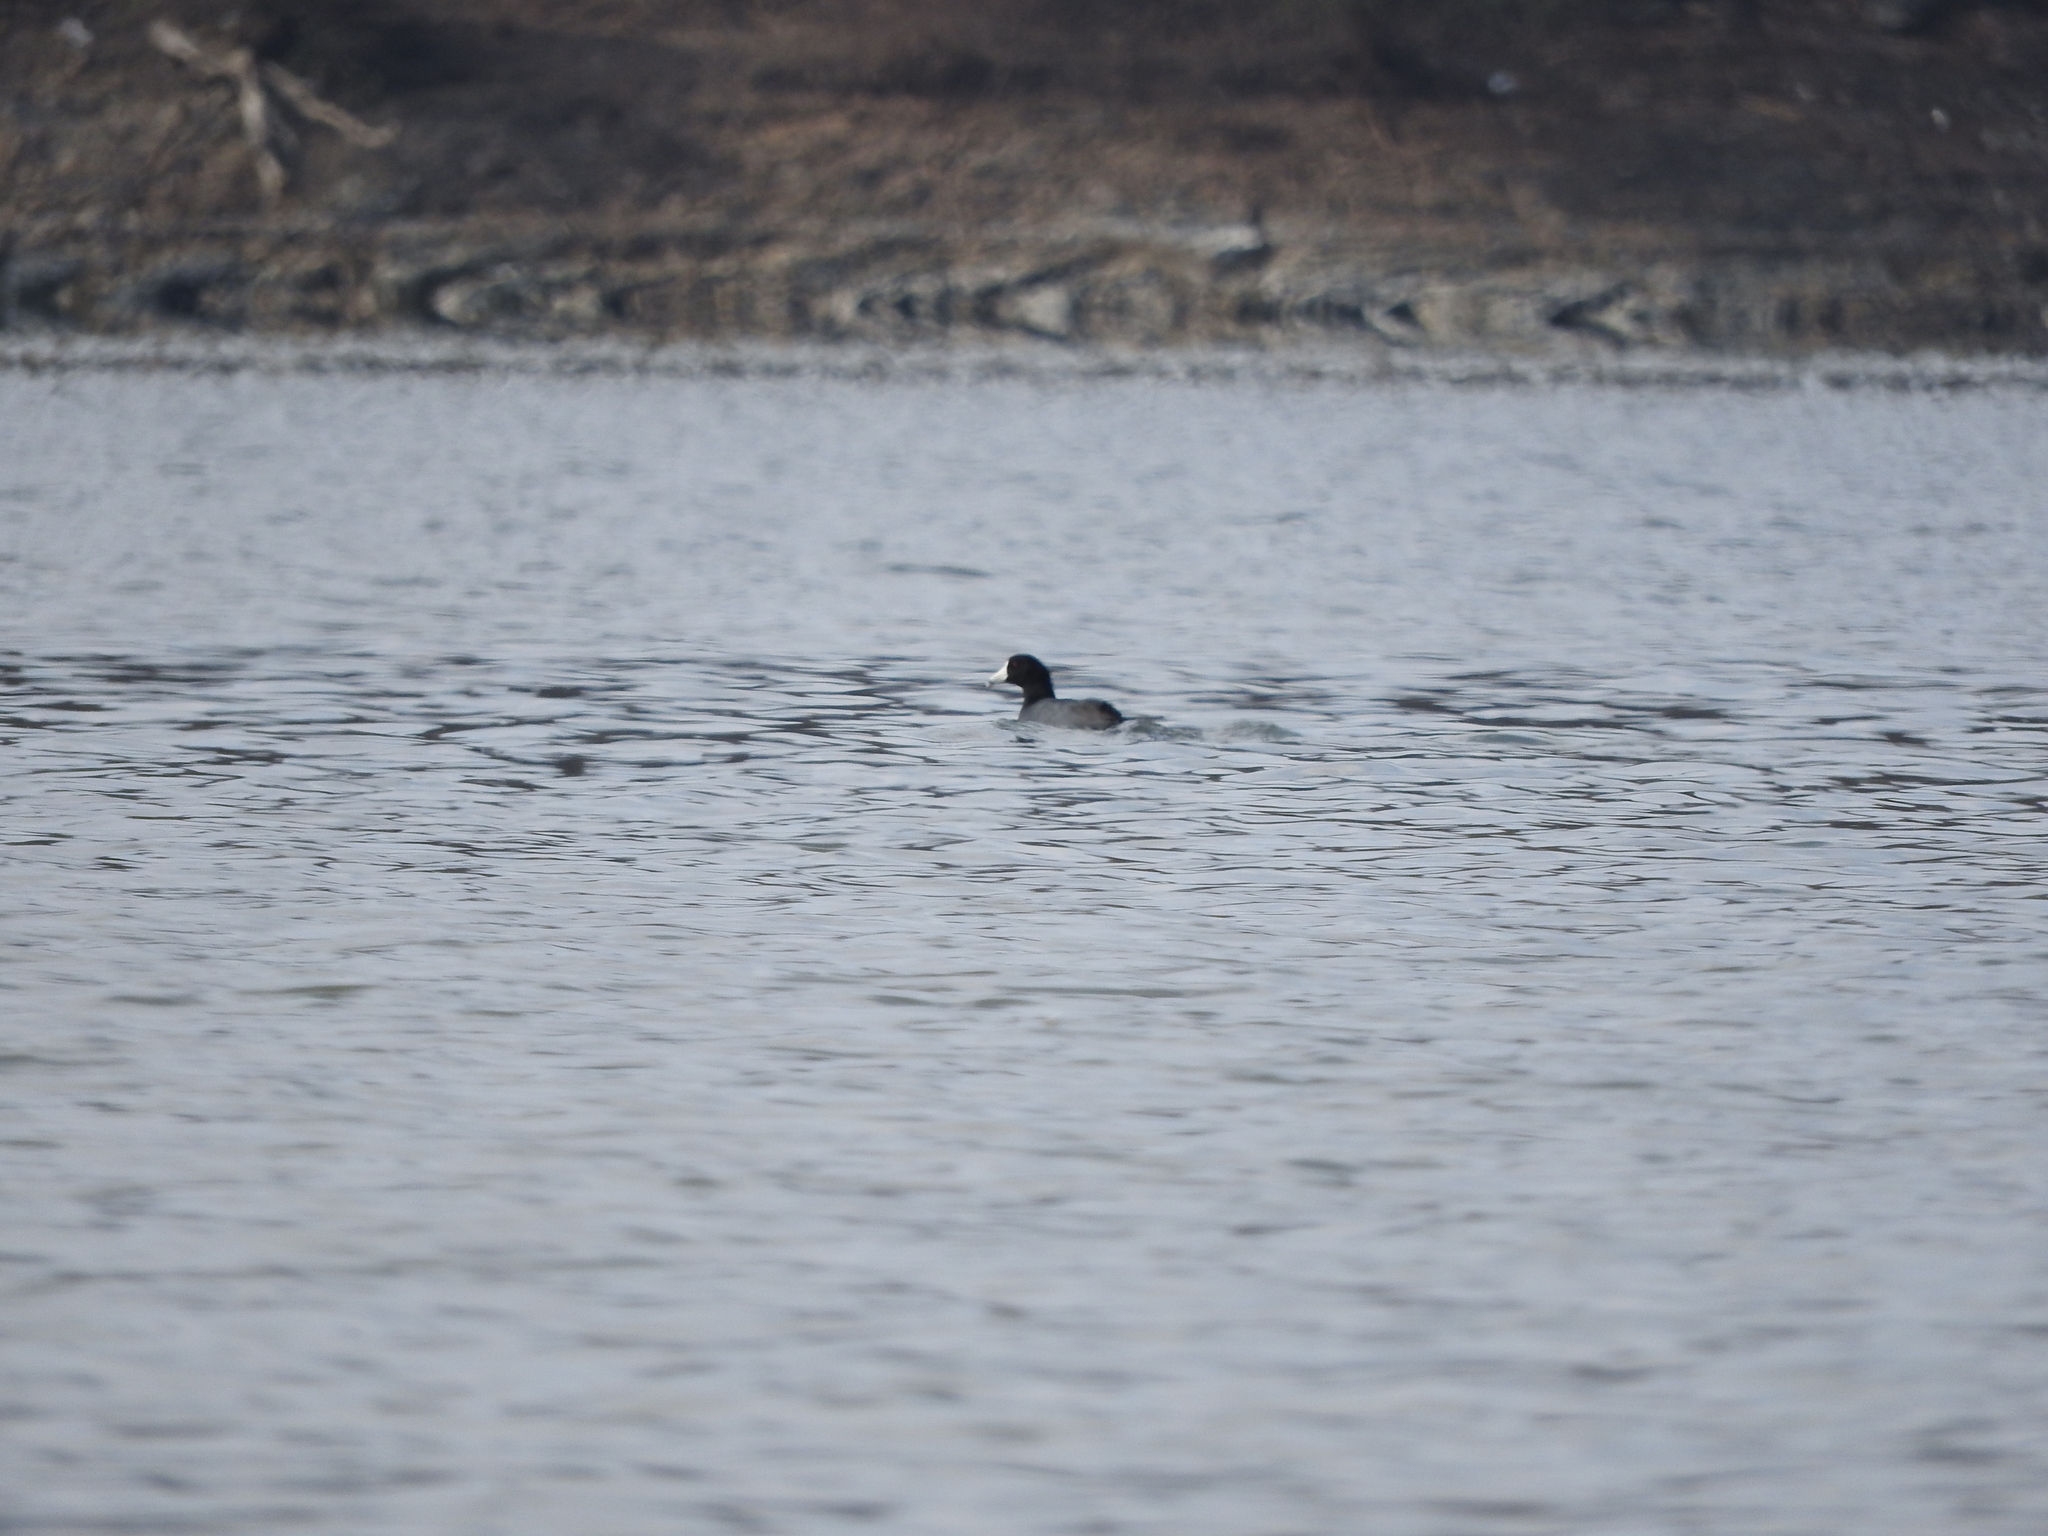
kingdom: Animalia
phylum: Chordata
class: Aves
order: Gruiformes
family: Rallidae
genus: Fulica
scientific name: Fulica americana
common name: American coot
